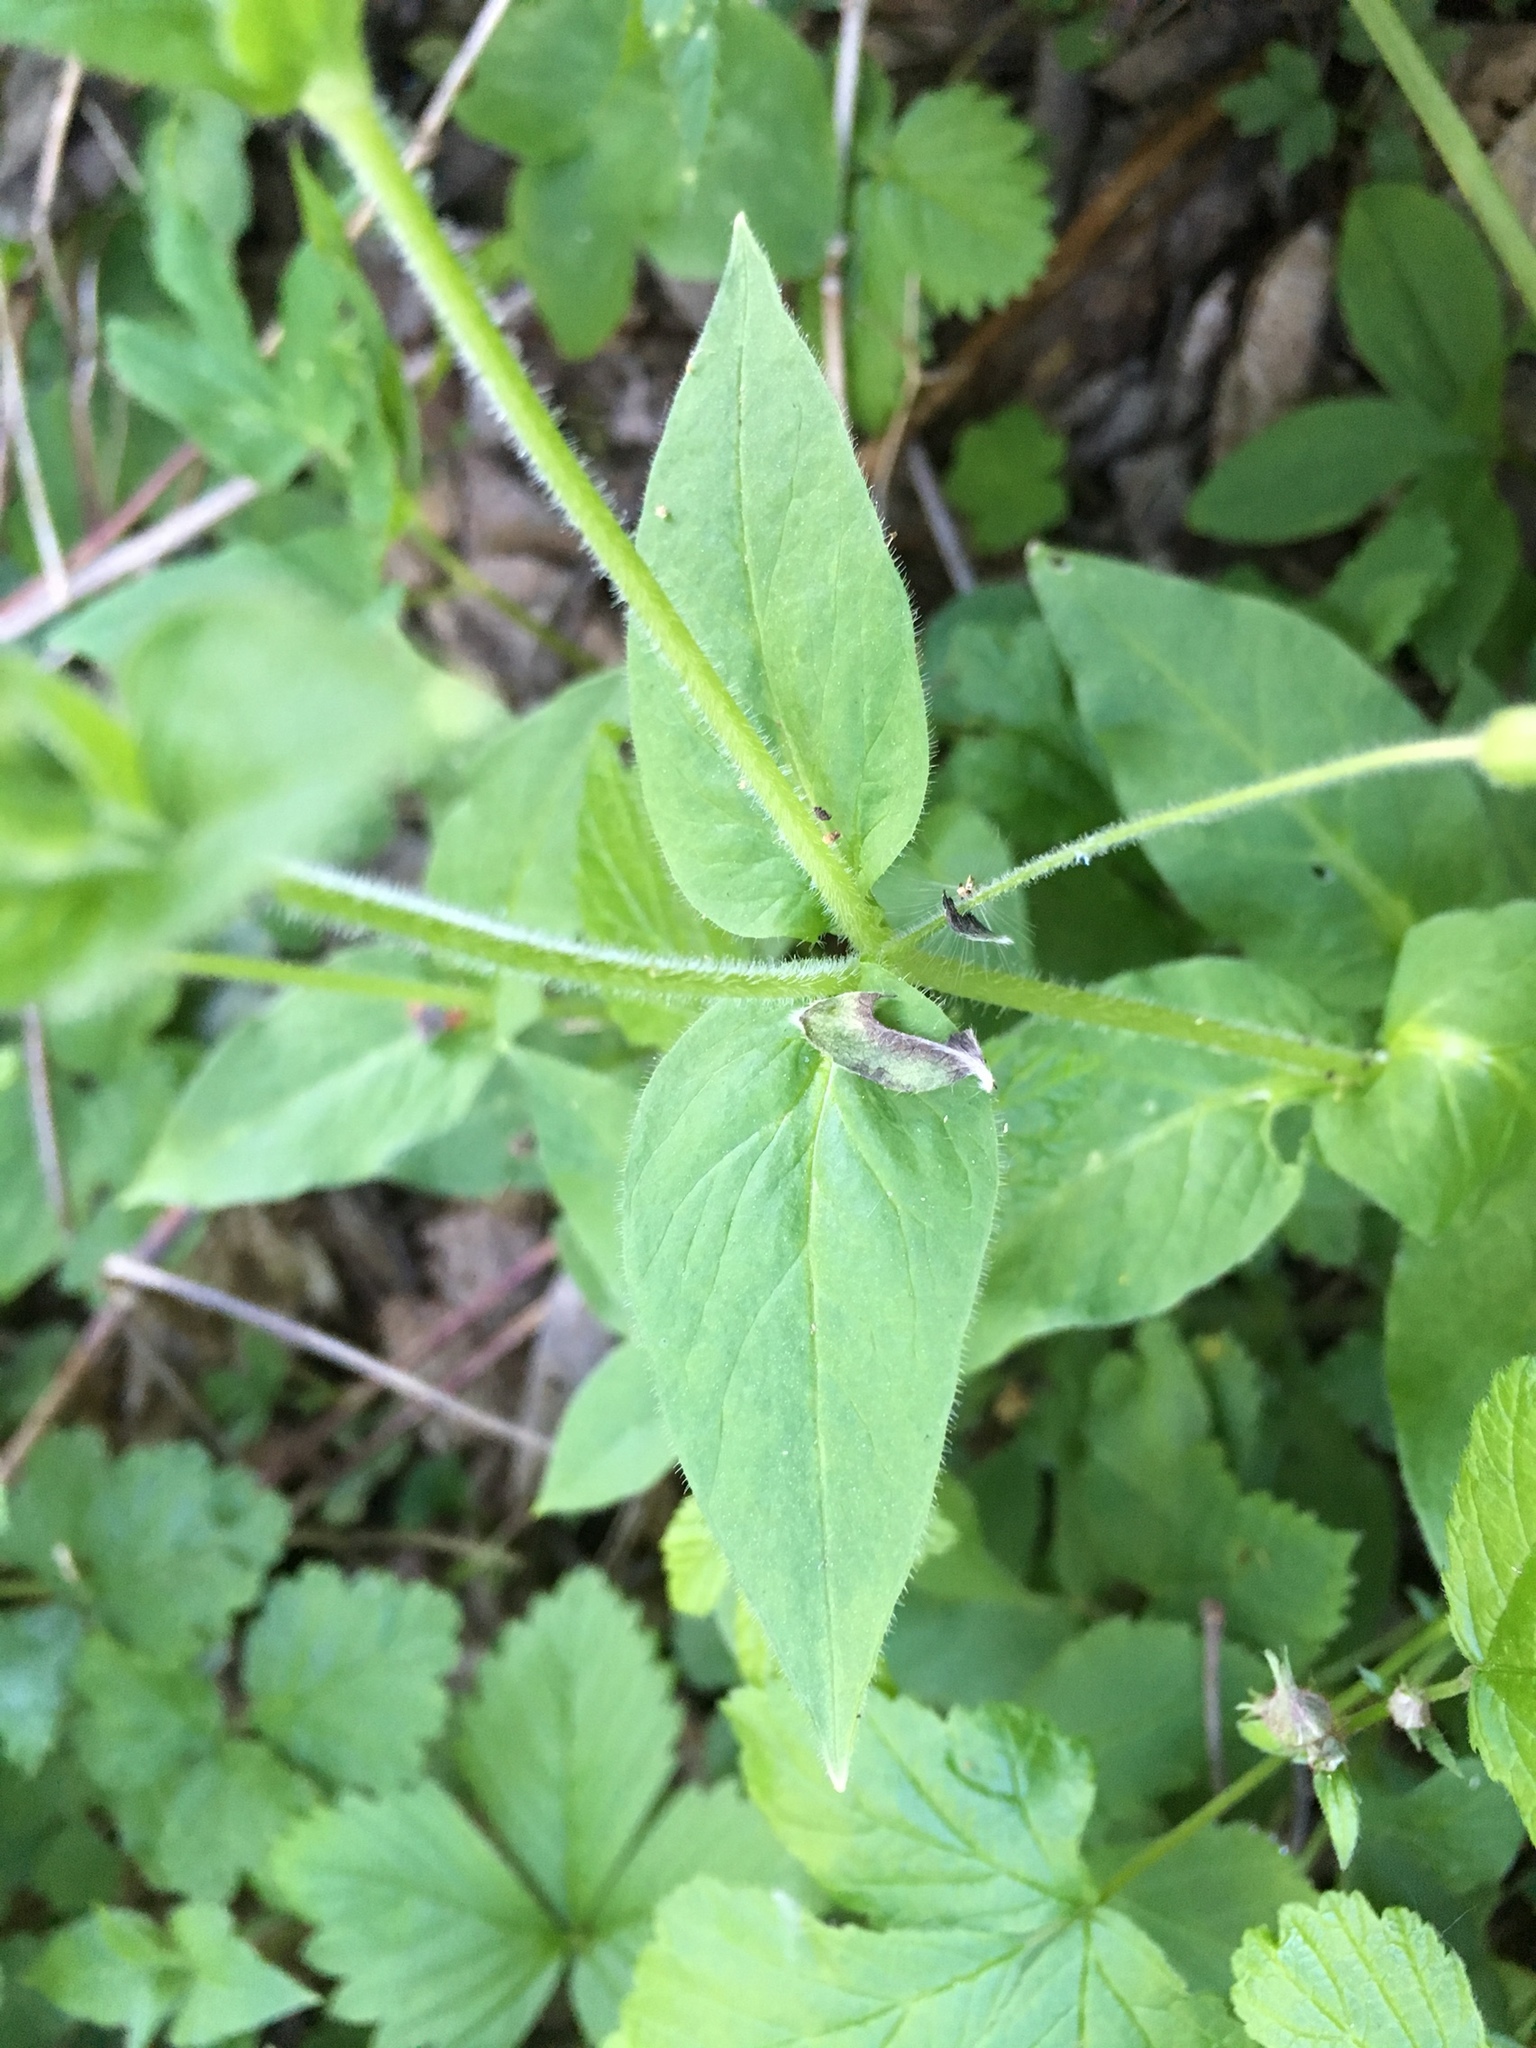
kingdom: Plantae
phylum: Tracheophyta
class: Magnoliopsida
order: Caryophyllales
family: Caryophyllaceae
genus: Stellaria
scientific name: Stellaria nemorum
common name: Wood stitchwort
